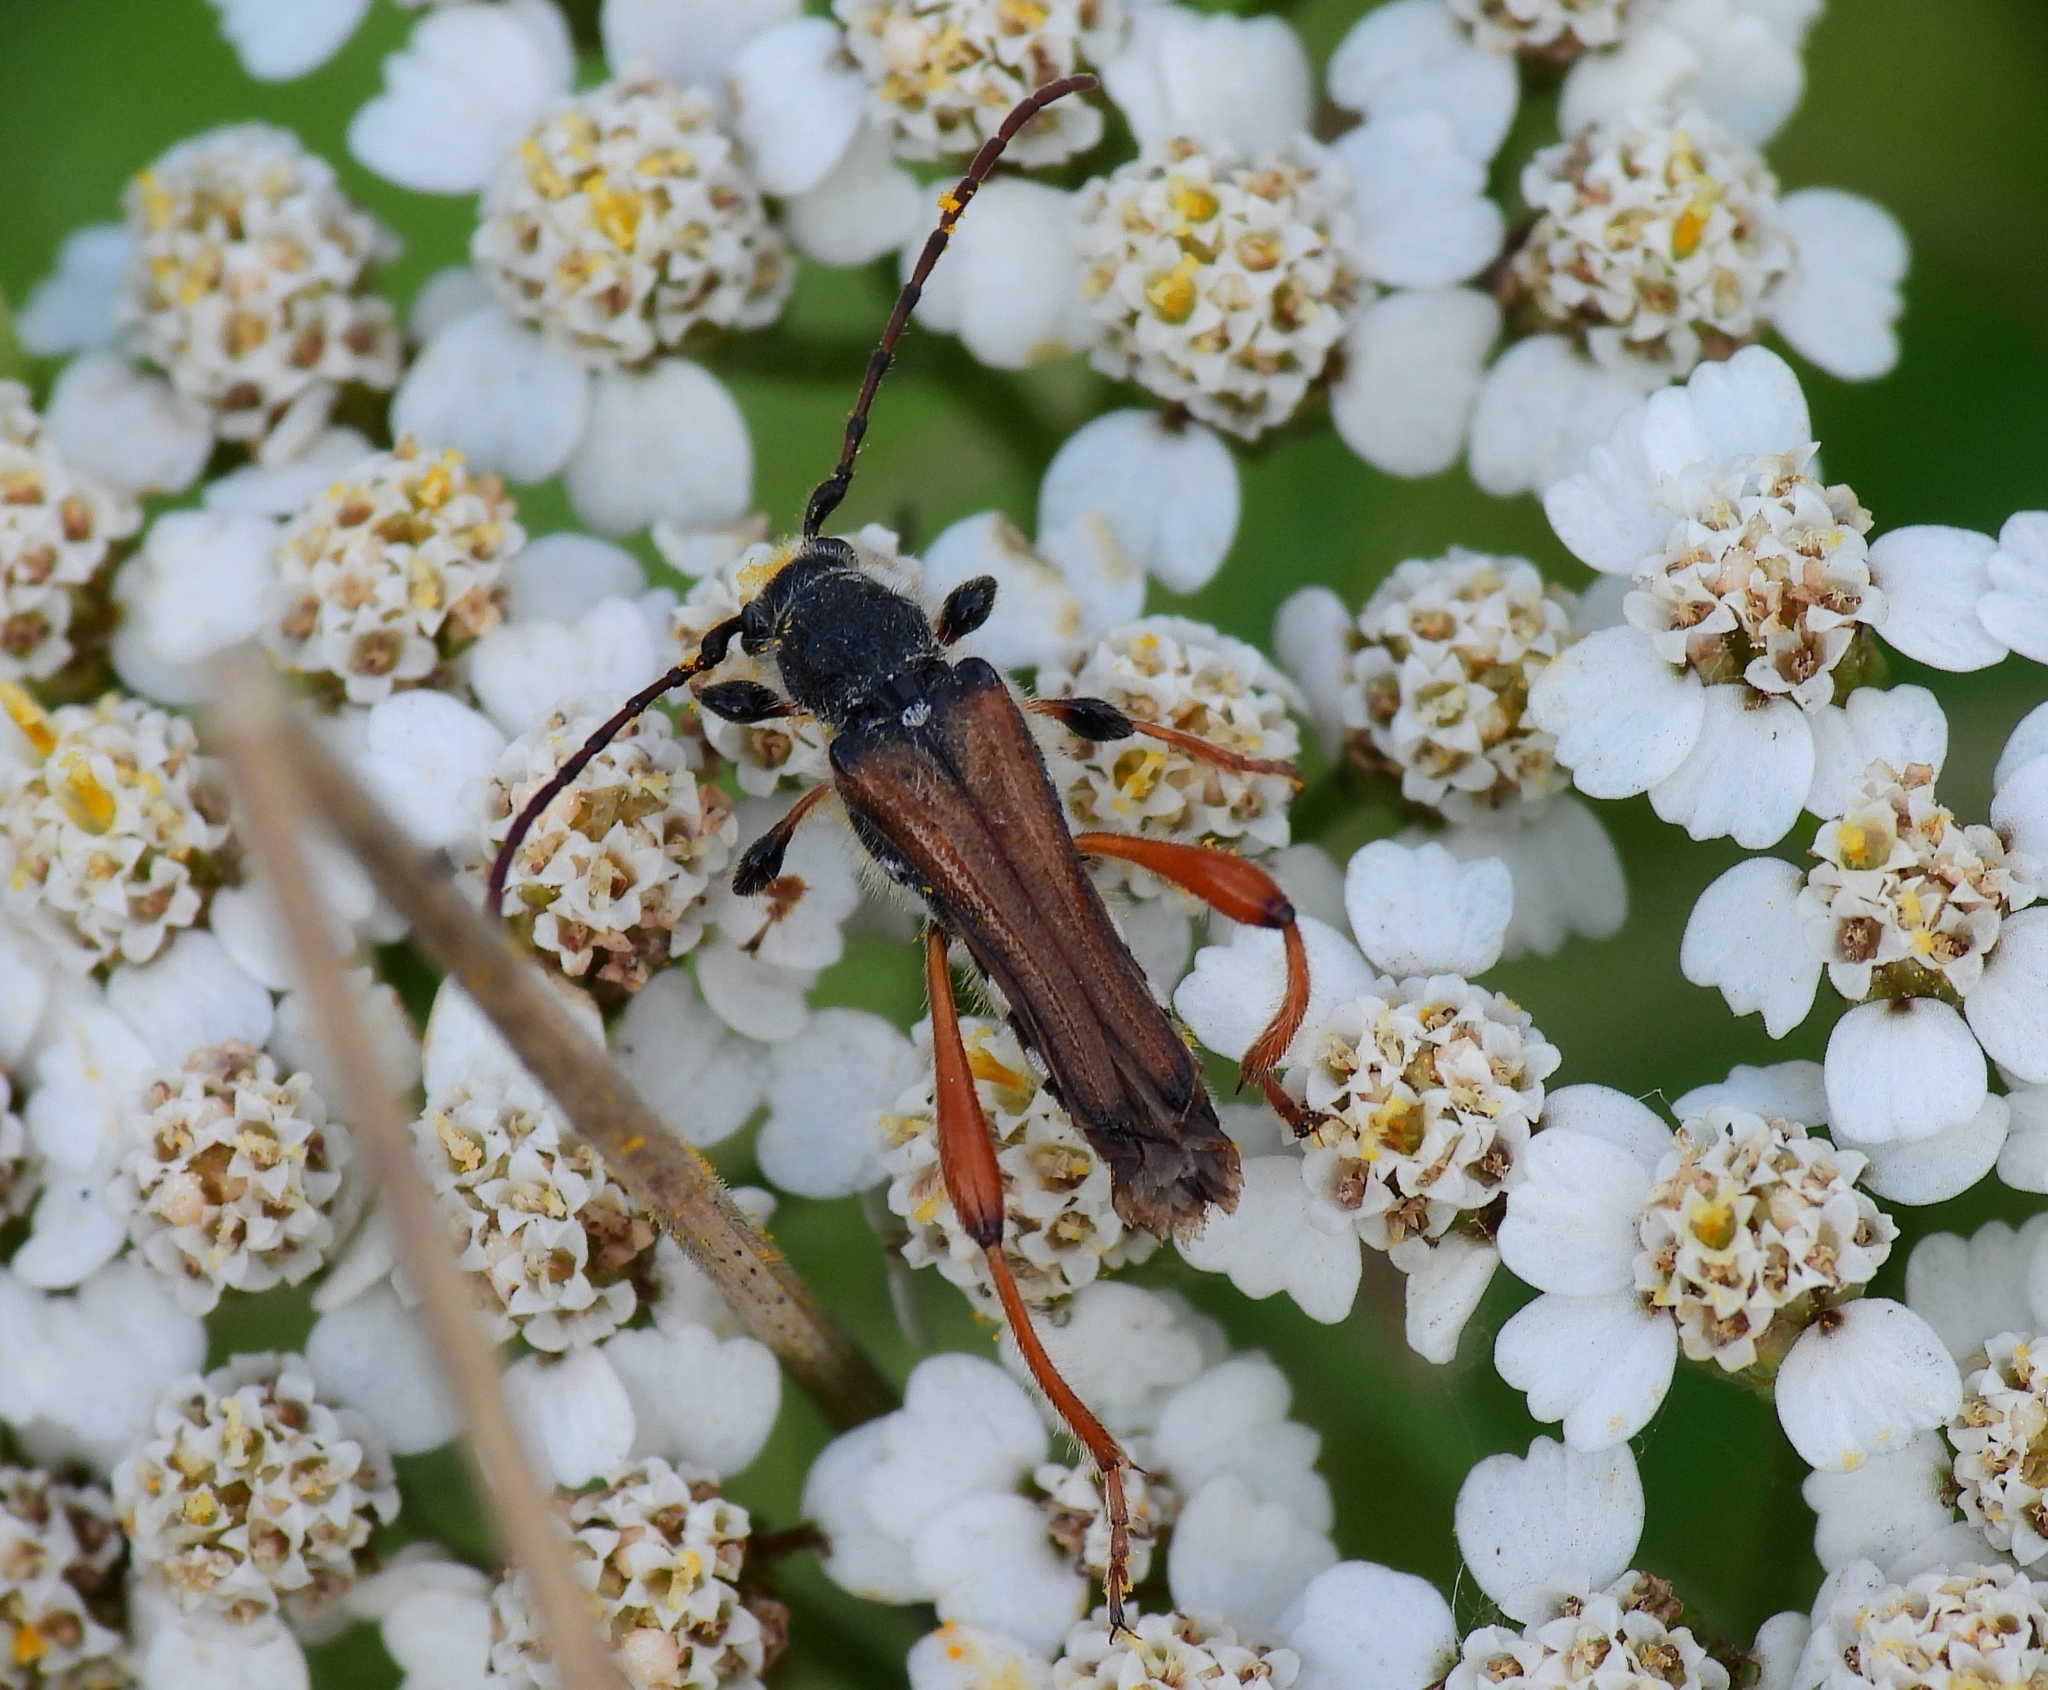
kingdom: Animalia
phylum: Arthropoda
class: Insecta
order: Coleoptera
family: Cerambycidae
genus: Stenopterus
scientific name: Stenopterus rufus
